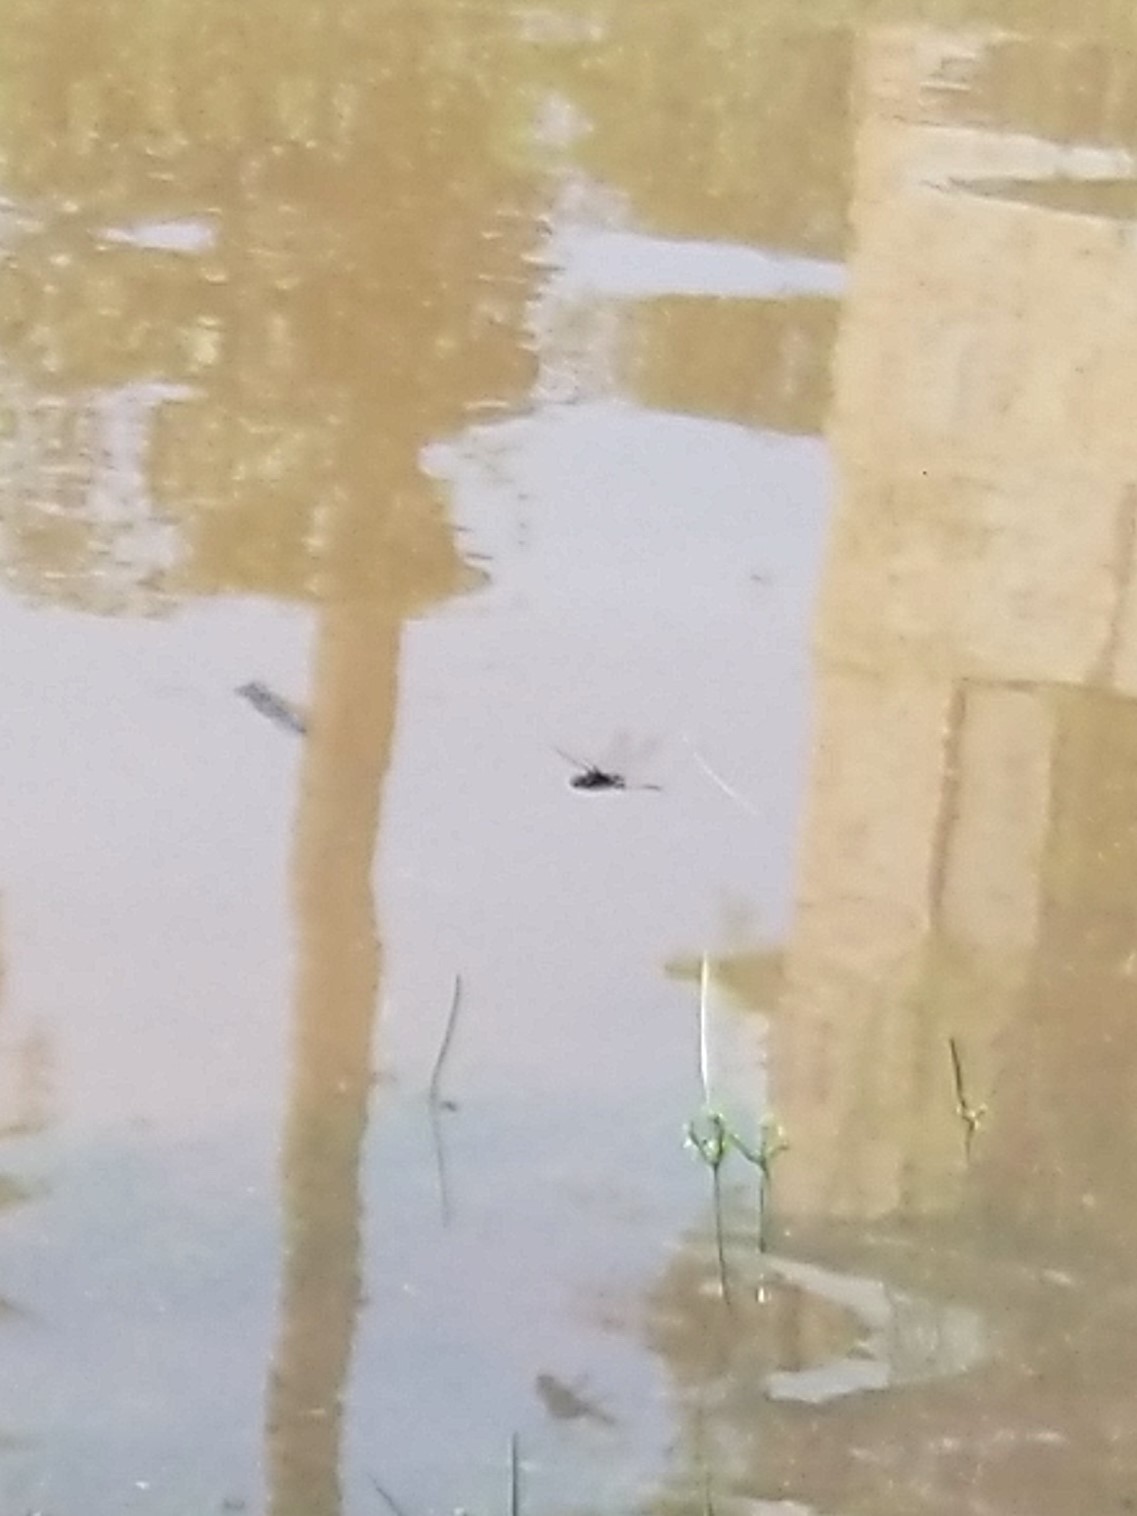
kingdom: Animalia
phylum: Arthropoda
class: Insecta
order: Odonata
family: Libellulidae
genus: Tramea
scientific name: Tramea limbata
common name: Ferruginous glider
